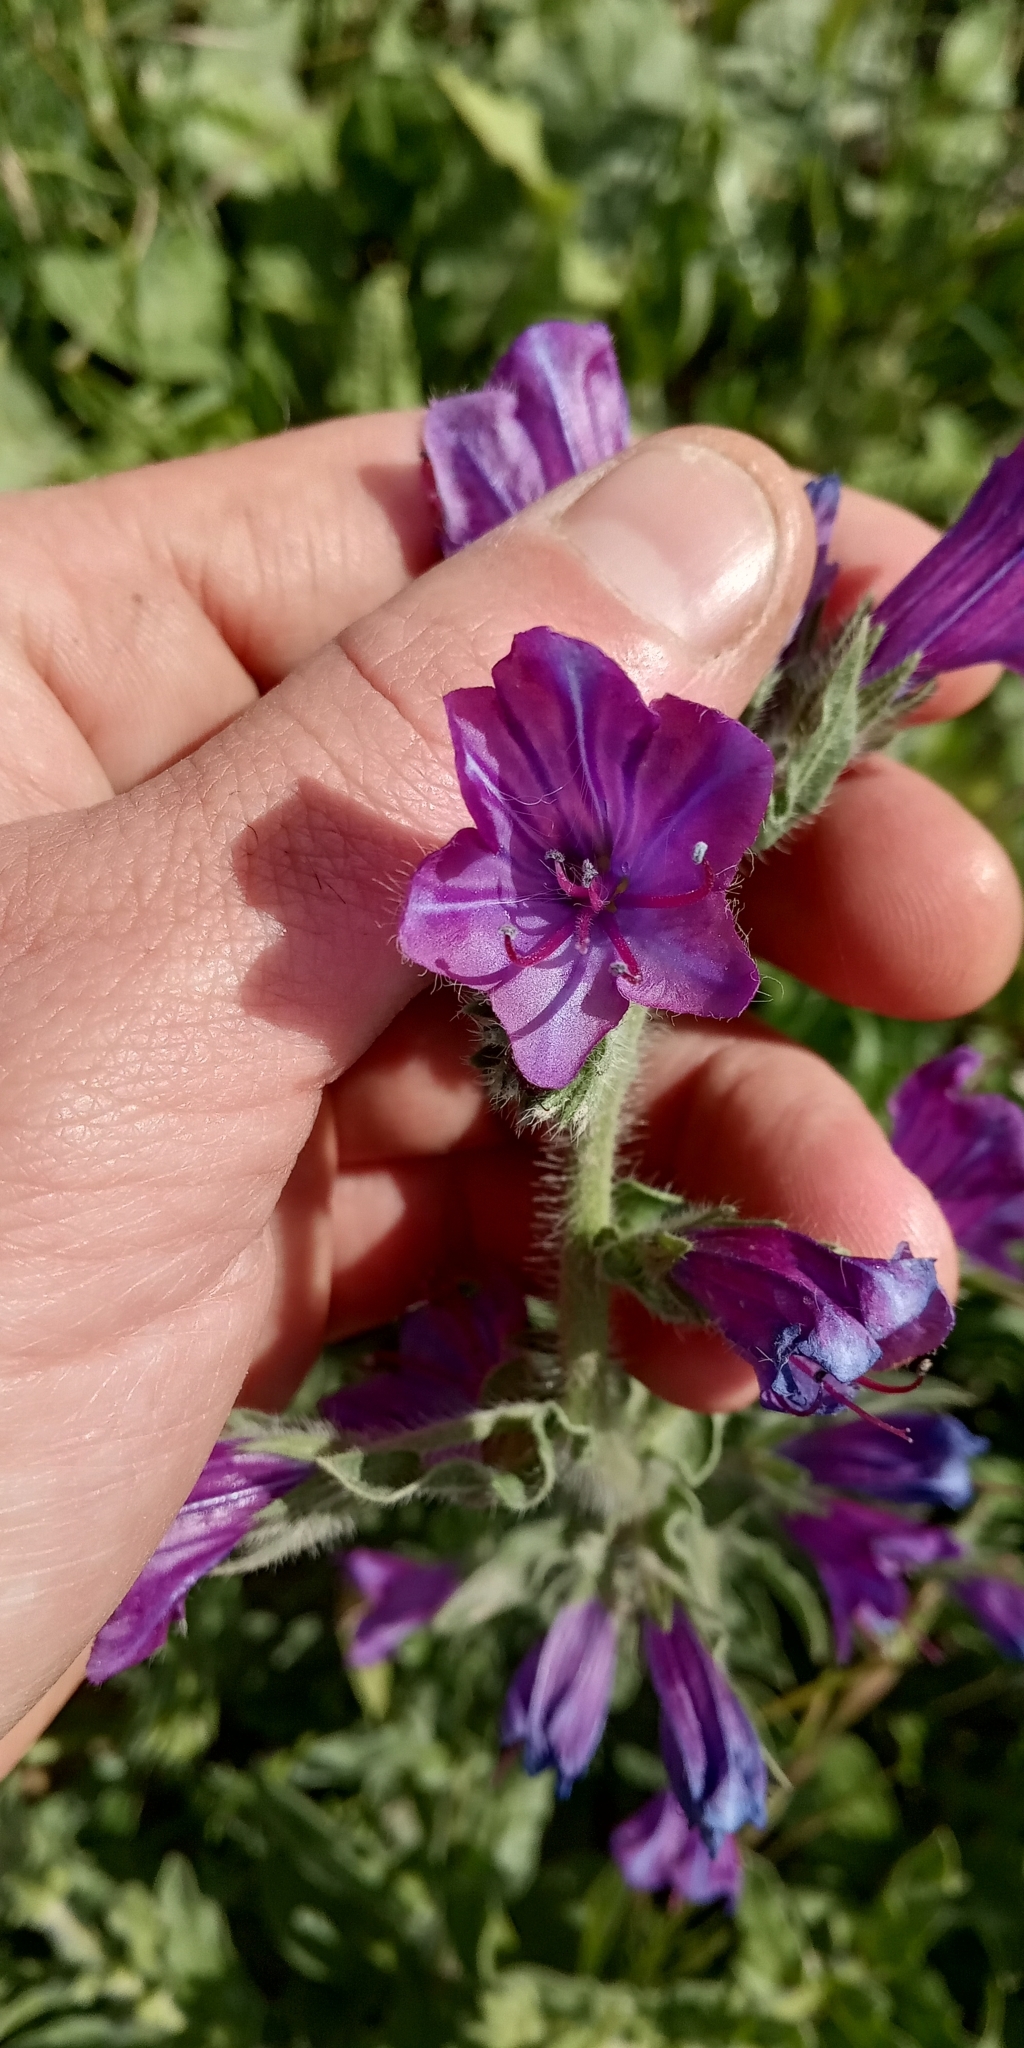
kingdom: Plantae
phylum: Tracheophyta
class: Magnoliopsida
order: Boraginales
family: Boraginaceae
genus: Echium
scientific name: Echium plantagineum
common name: Purple viper's-bugloss
